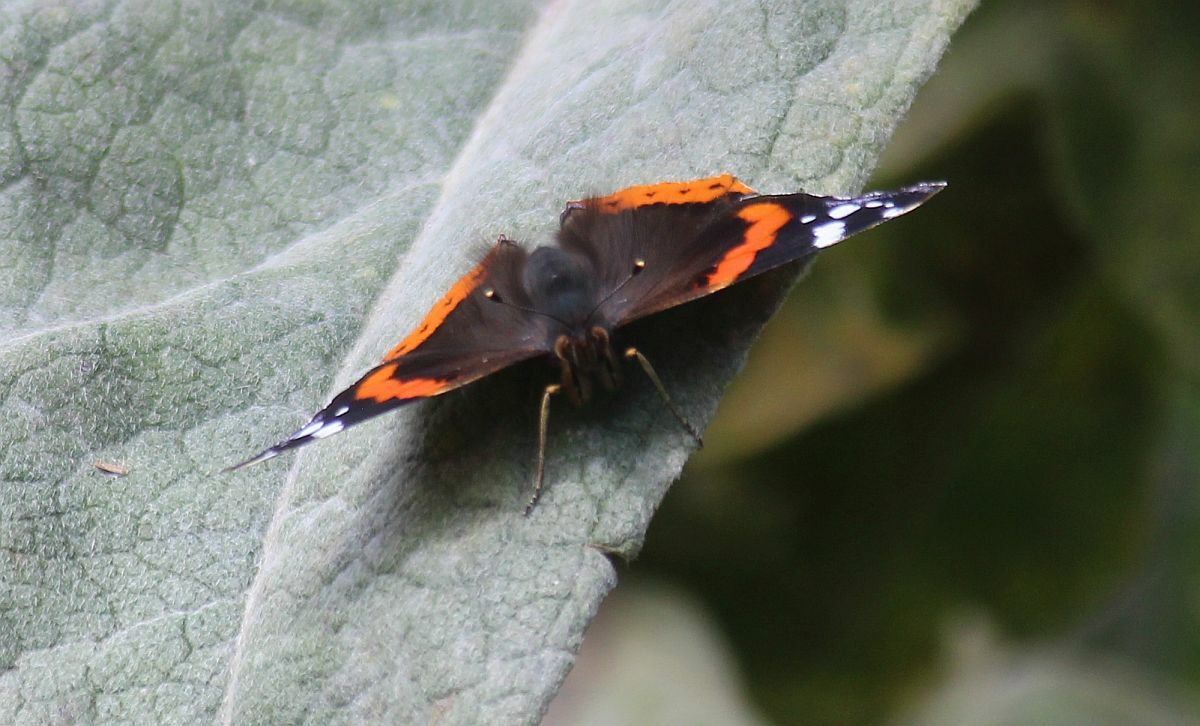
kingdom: Animalia
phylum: Arthropoda
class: Insecta
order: Lepidoptera
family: Nymphalidae
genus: Vanessa
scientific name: Vanessa atalanta
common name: Red admiral
